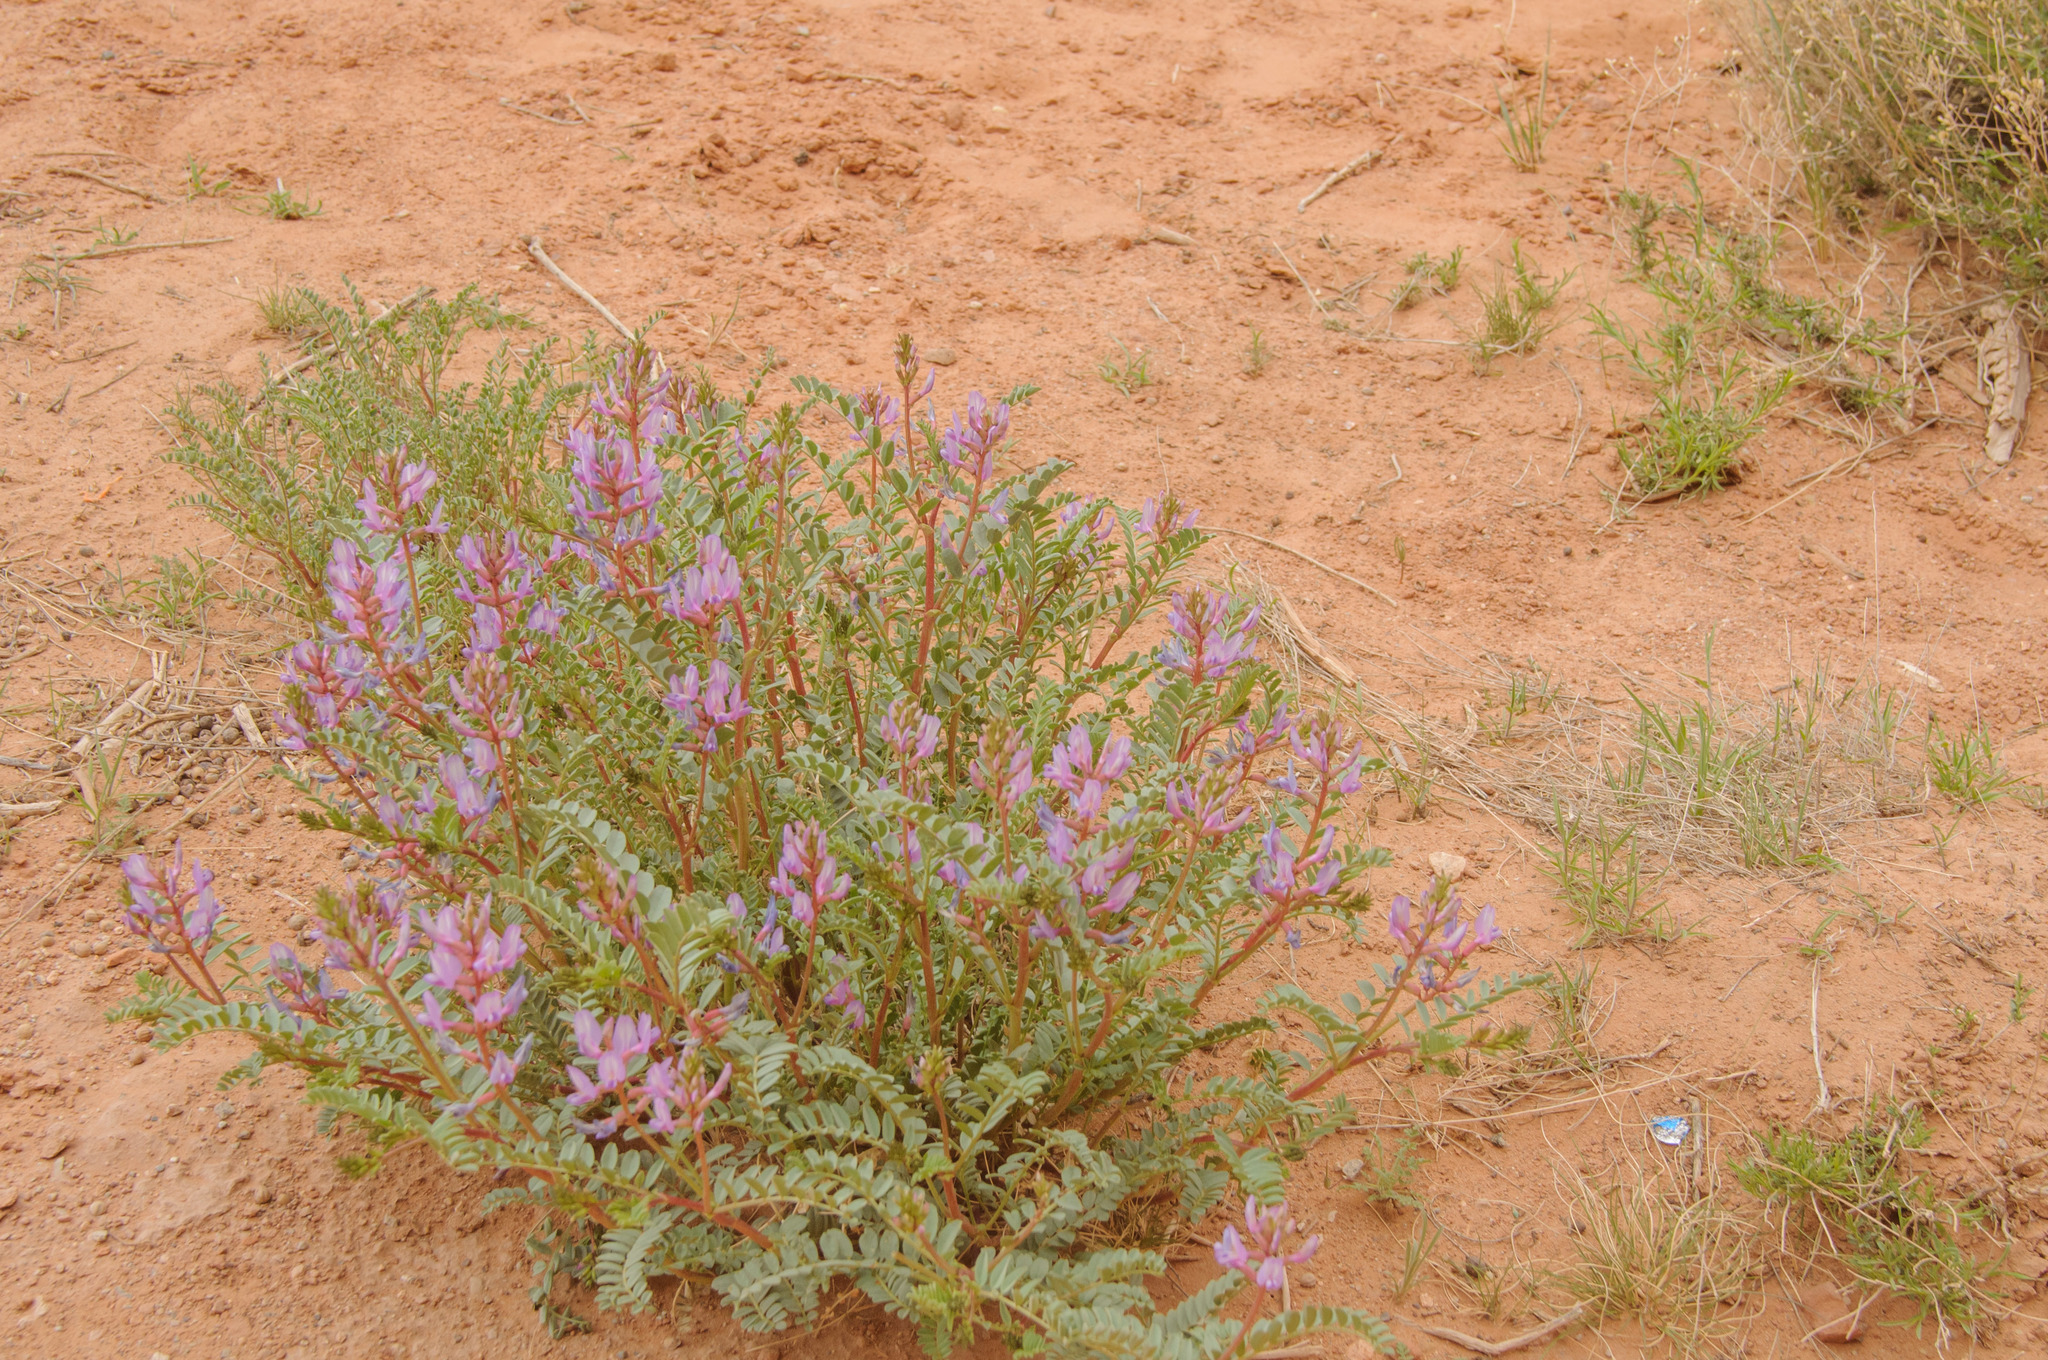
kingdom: Plantae
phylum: Tracheophyta
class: Magnoliopsida
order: Fabales
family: Fabaceae
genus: Astragalus
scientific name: Astragalus preussii
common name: Preuss's milk-vetch
